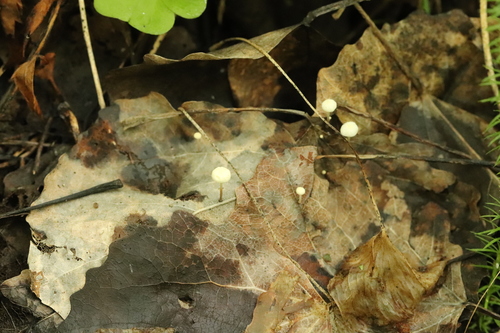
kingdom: Fungi
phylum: Basidiomycota
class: Agaricomycetes
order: Agaricales
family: Marasmiaceae
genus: Marasmius
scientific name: Marasmius epiphyllus
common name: Leaf parachute
